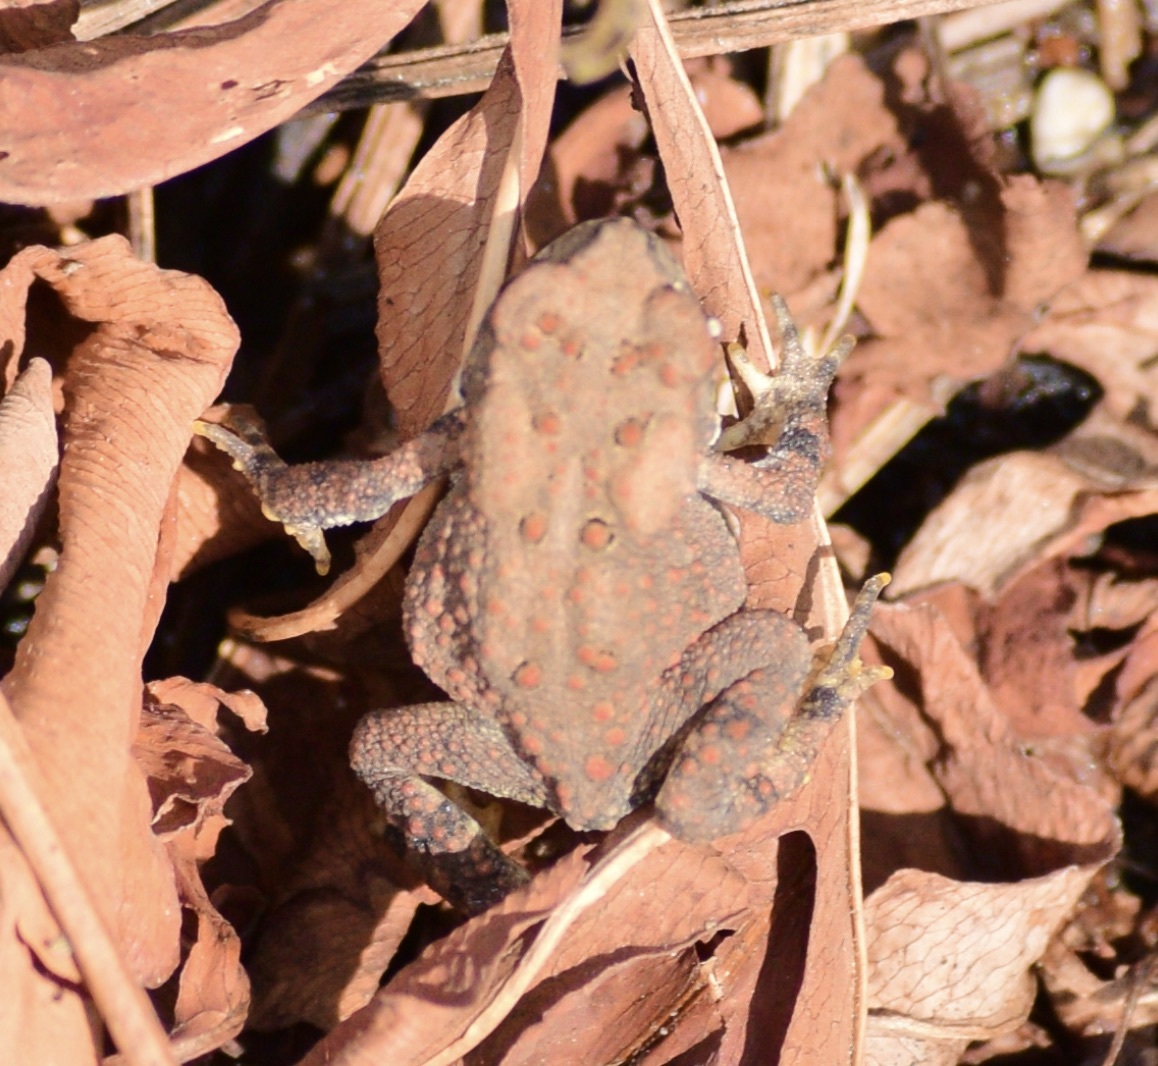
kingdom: Animalia
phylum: Chordata
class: Amphibia
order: Anura
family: Bufonidae
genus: Anaxyrus
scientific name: Anaxyrus americanus
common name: American toad
